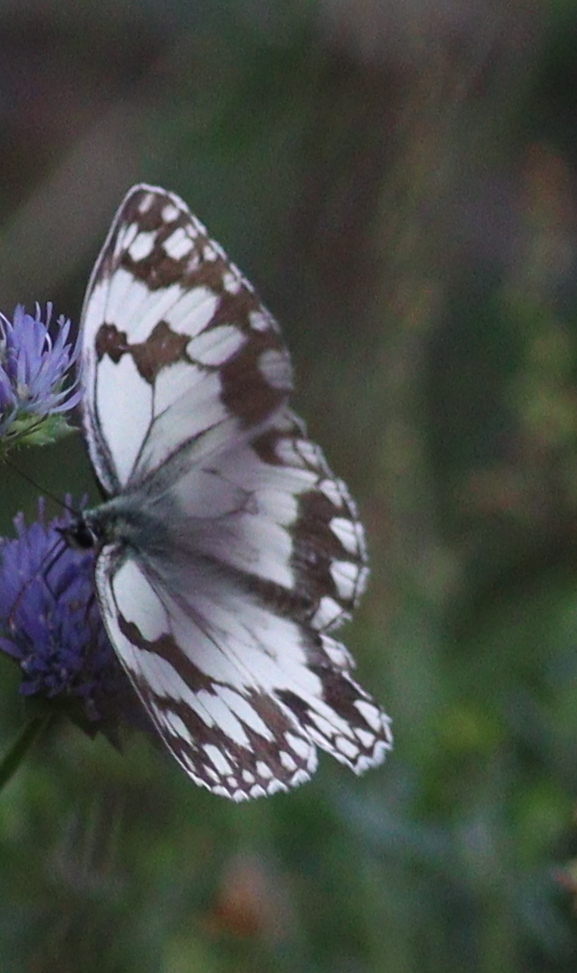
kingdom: Animalia
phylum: Arthropoda
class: Insecta
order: Lepidoptera
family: Nymphalidae
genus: Melanargia
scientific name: Melanargia lachesis
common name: Iberian marbled white
